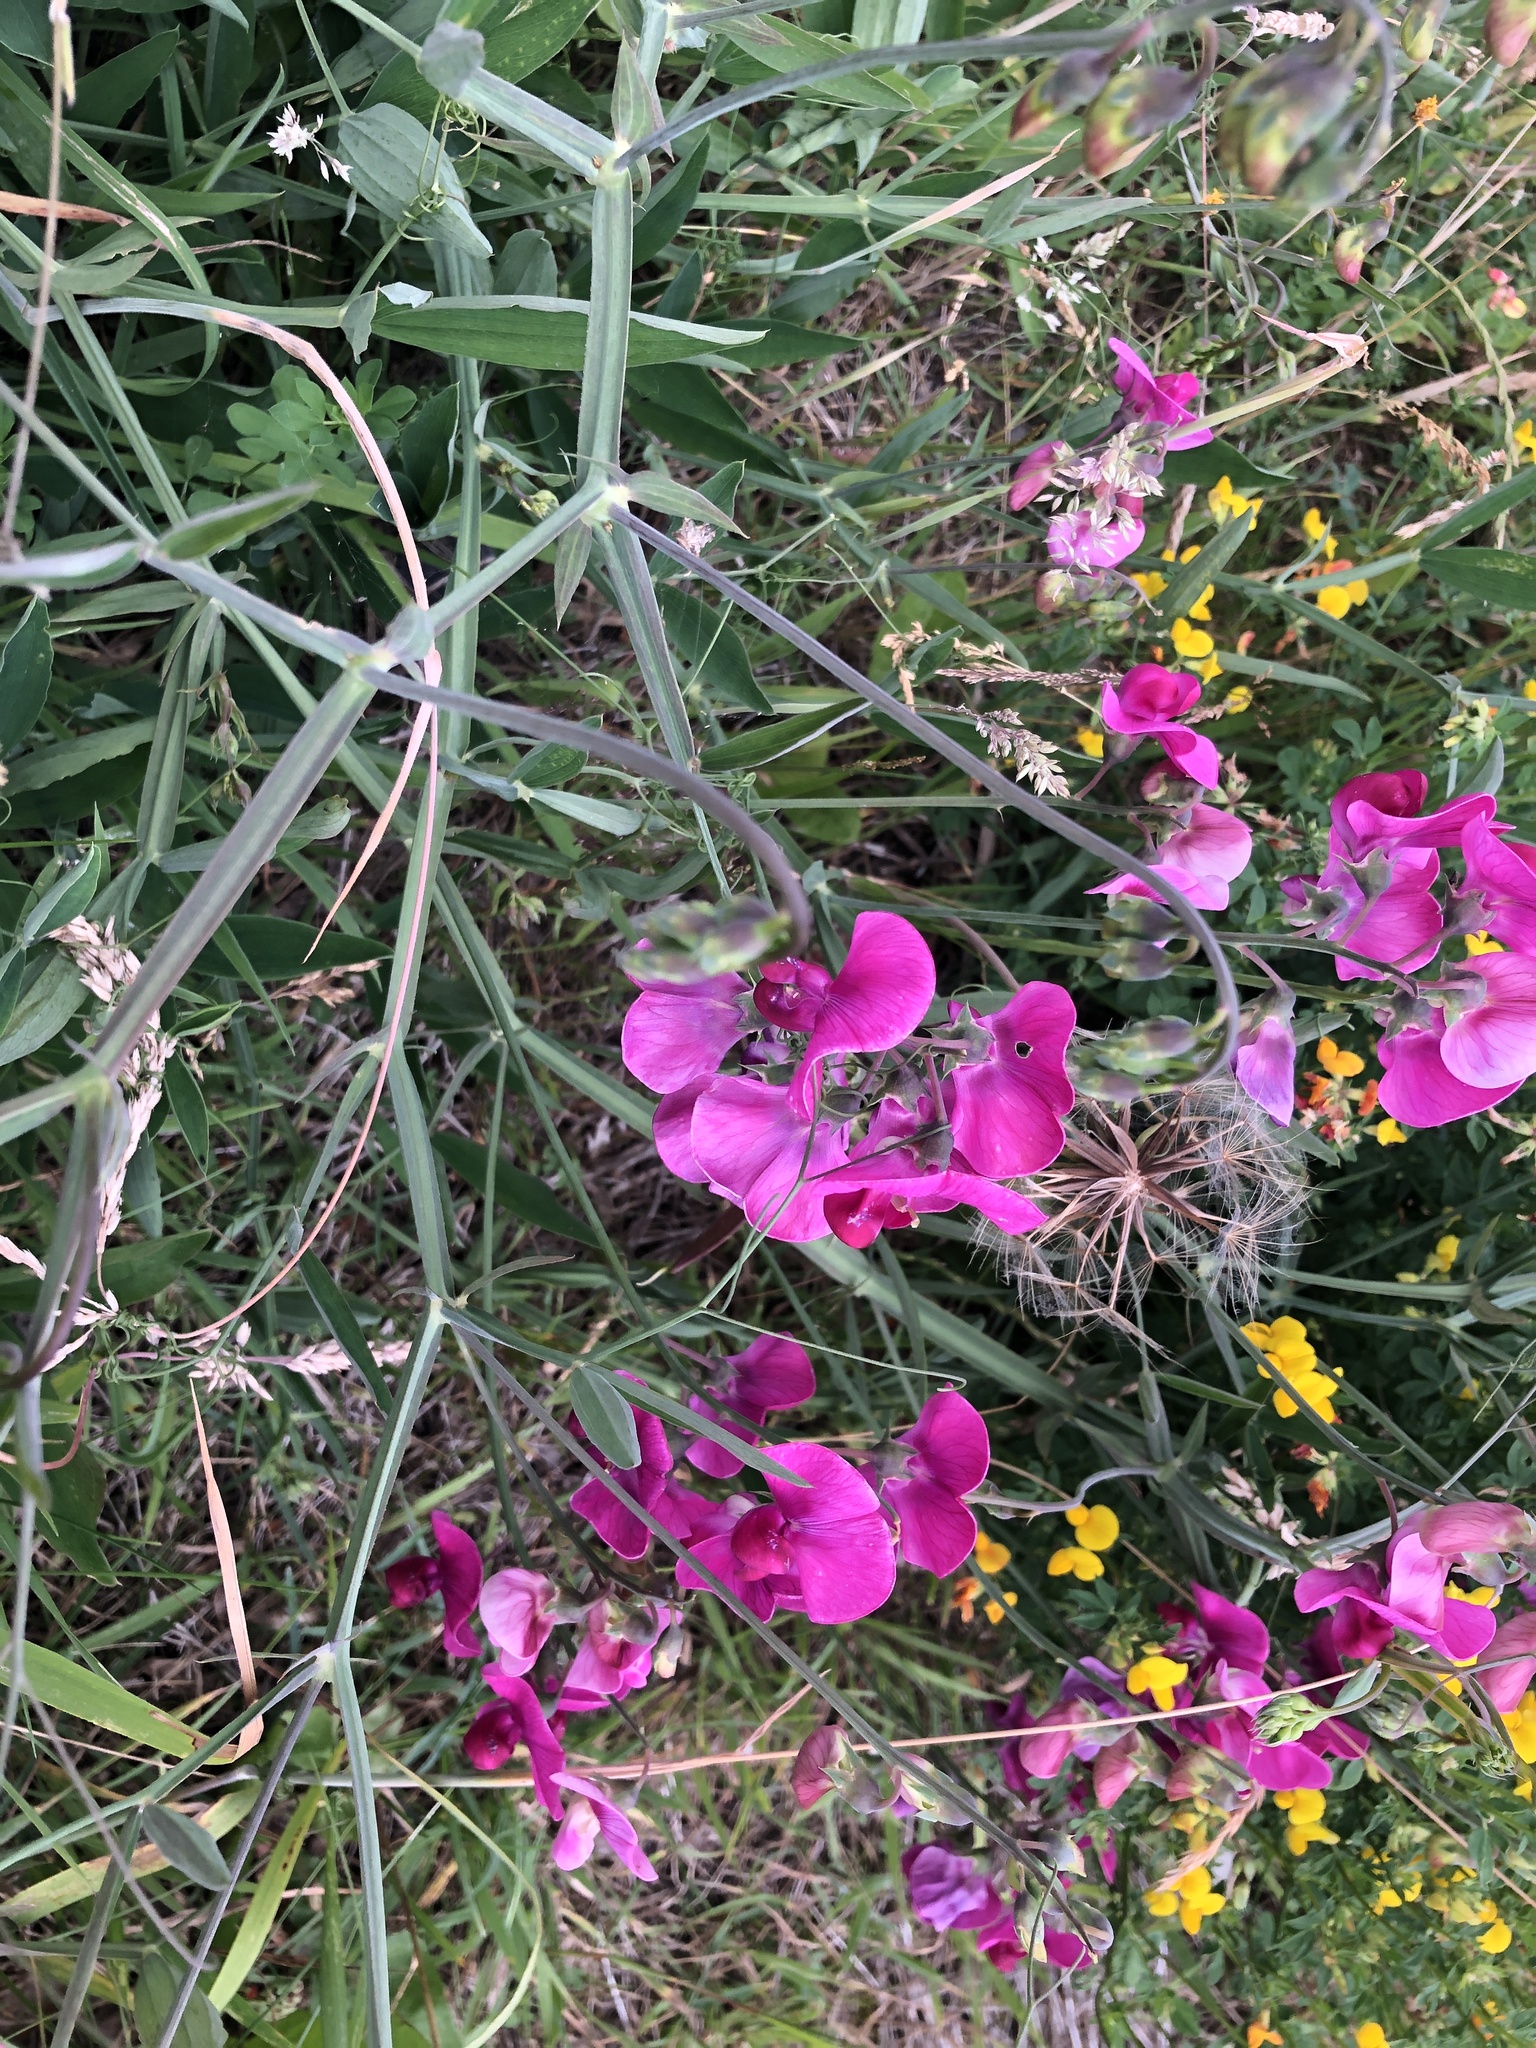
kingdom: Plantae
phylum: Tracheophyta
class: Magnoliopsida
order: Fabales
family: Fabaceae
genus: Lathyrus
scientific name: Lathyrus latifolius
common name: Perennial pea
